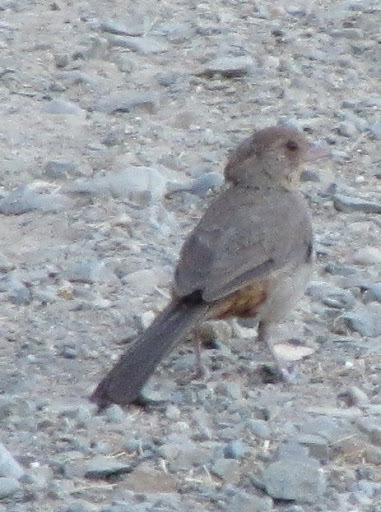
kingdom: Animalia
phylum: Chordata
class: Aves
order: Passeriformes
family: Passerellidae
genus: Melozone
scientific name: Melozone crissalis
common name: California towhee
